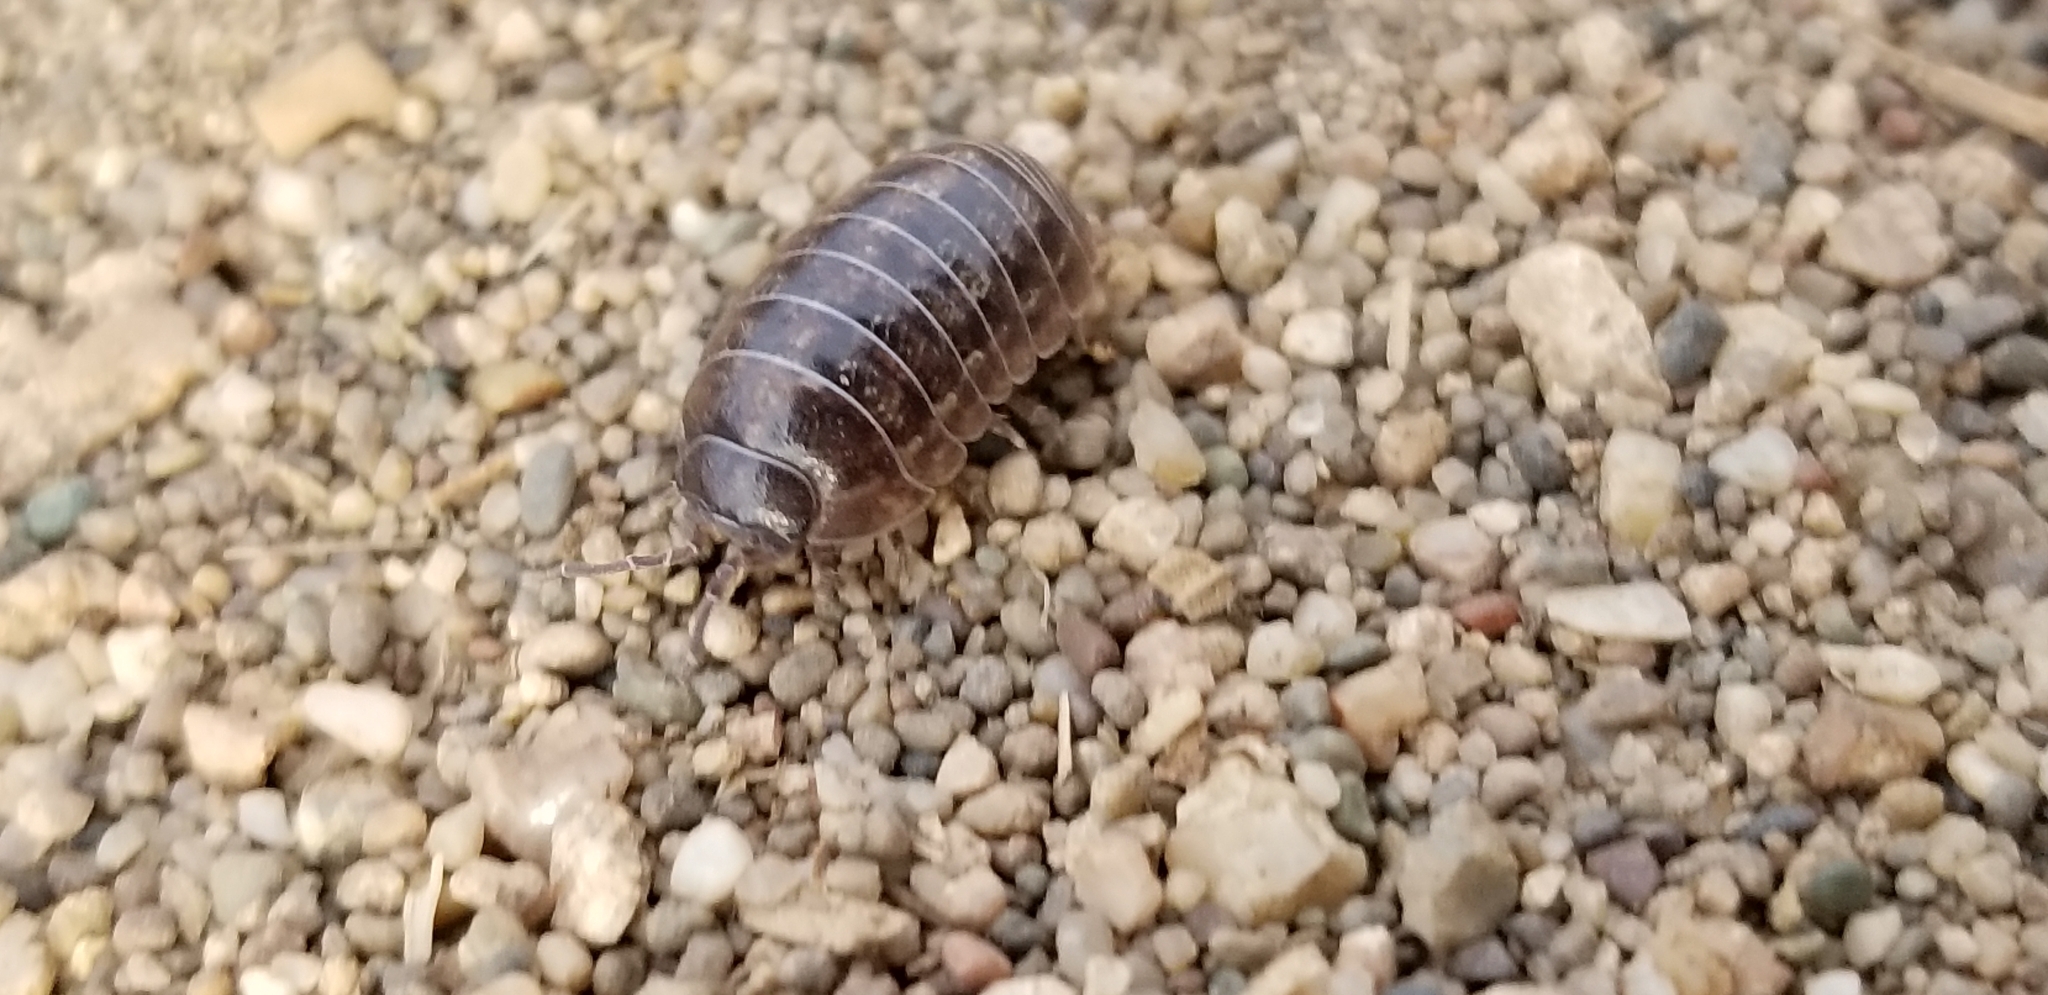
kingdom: Animalia
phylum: Arthropoda
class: Malacostraca
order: Isopoda
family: Armadillidiidae
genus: Armadillidium
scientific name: Armadillidium vulgare
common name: Common pill woodlouse
